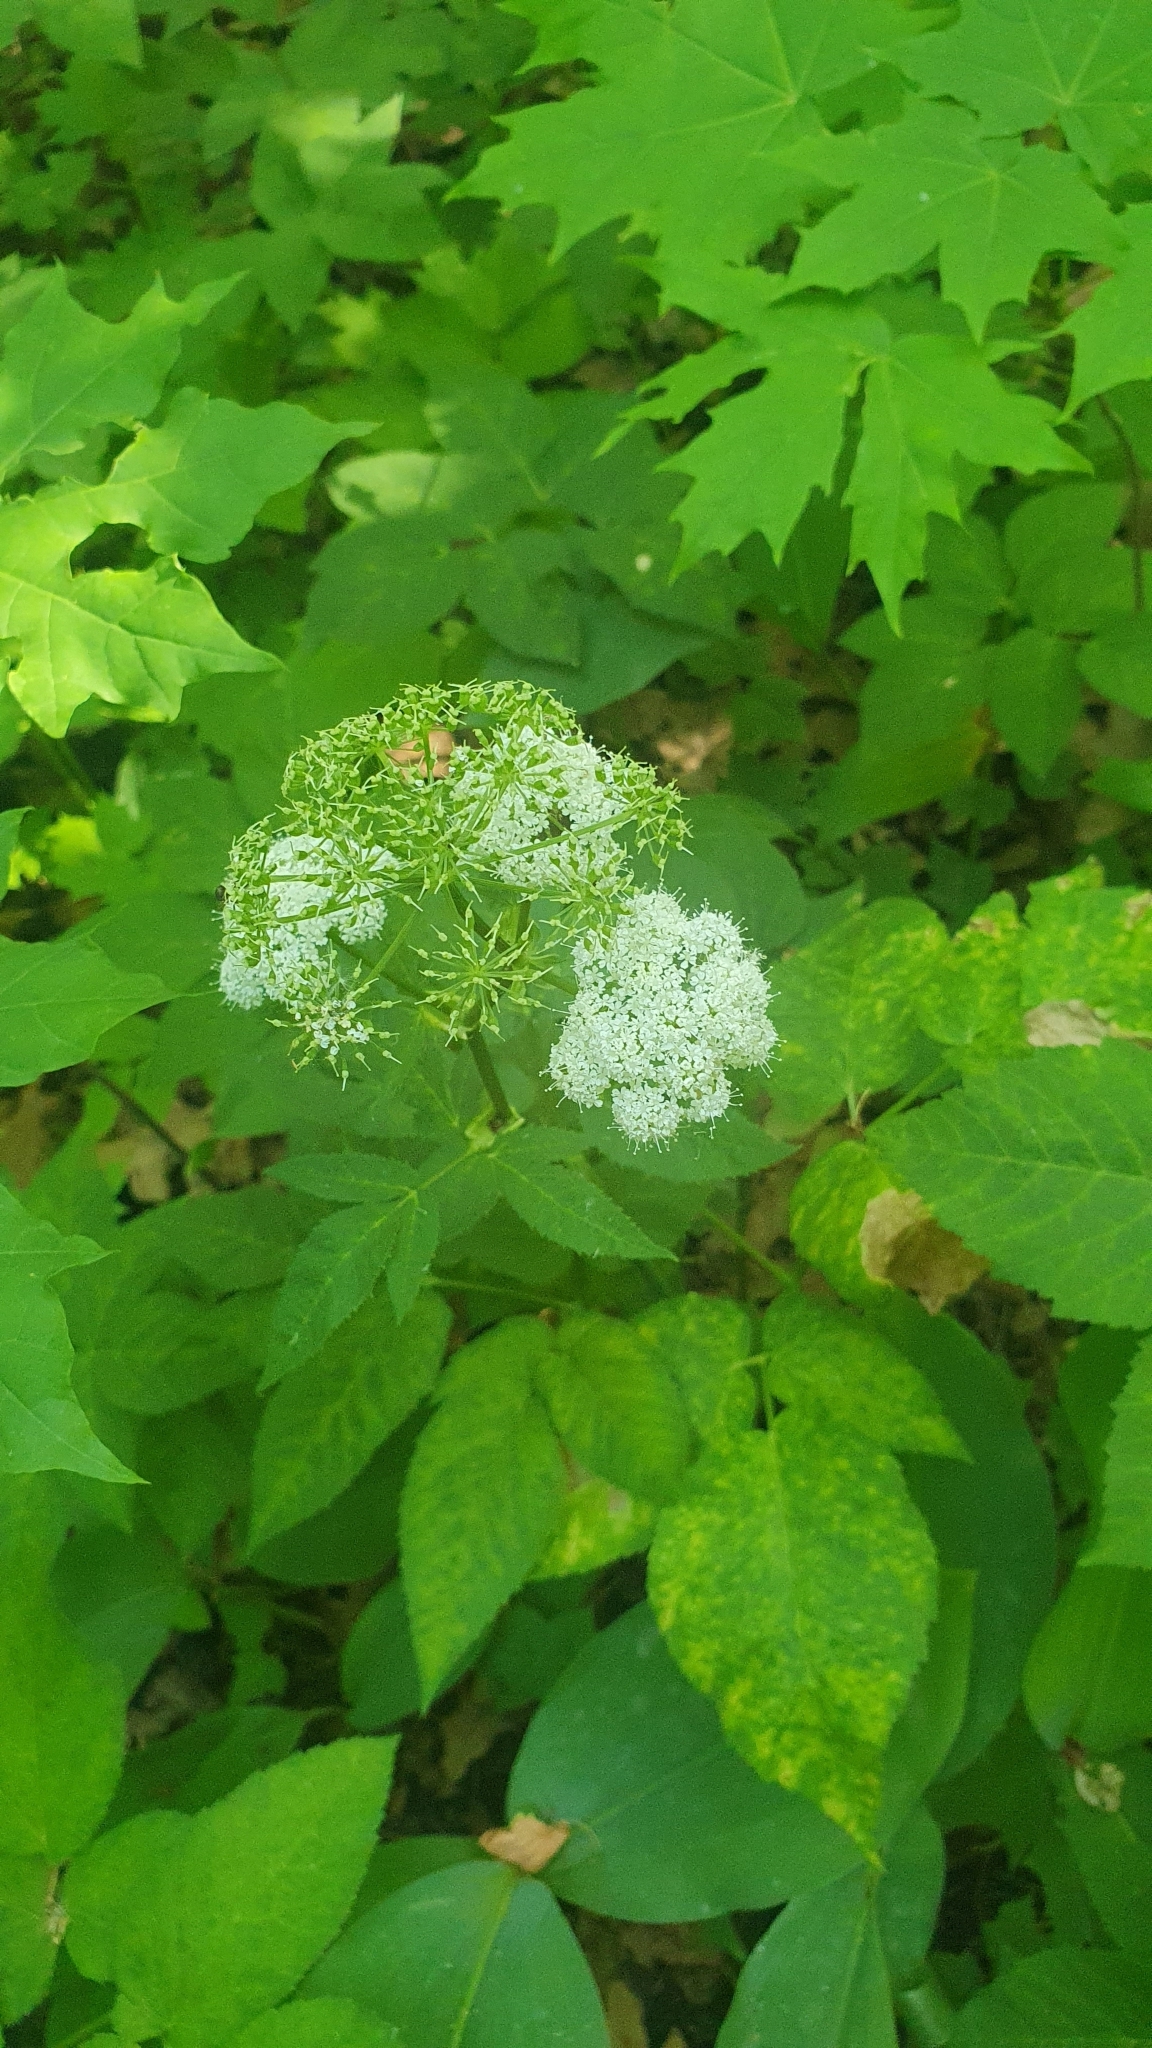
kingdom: Plantae
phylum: Tracheophyta
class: Magnoliopsida
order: Apiales
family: Apiaceae
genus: Aegopodium
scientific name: Aegopodium podagraria
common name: Ground-elder
